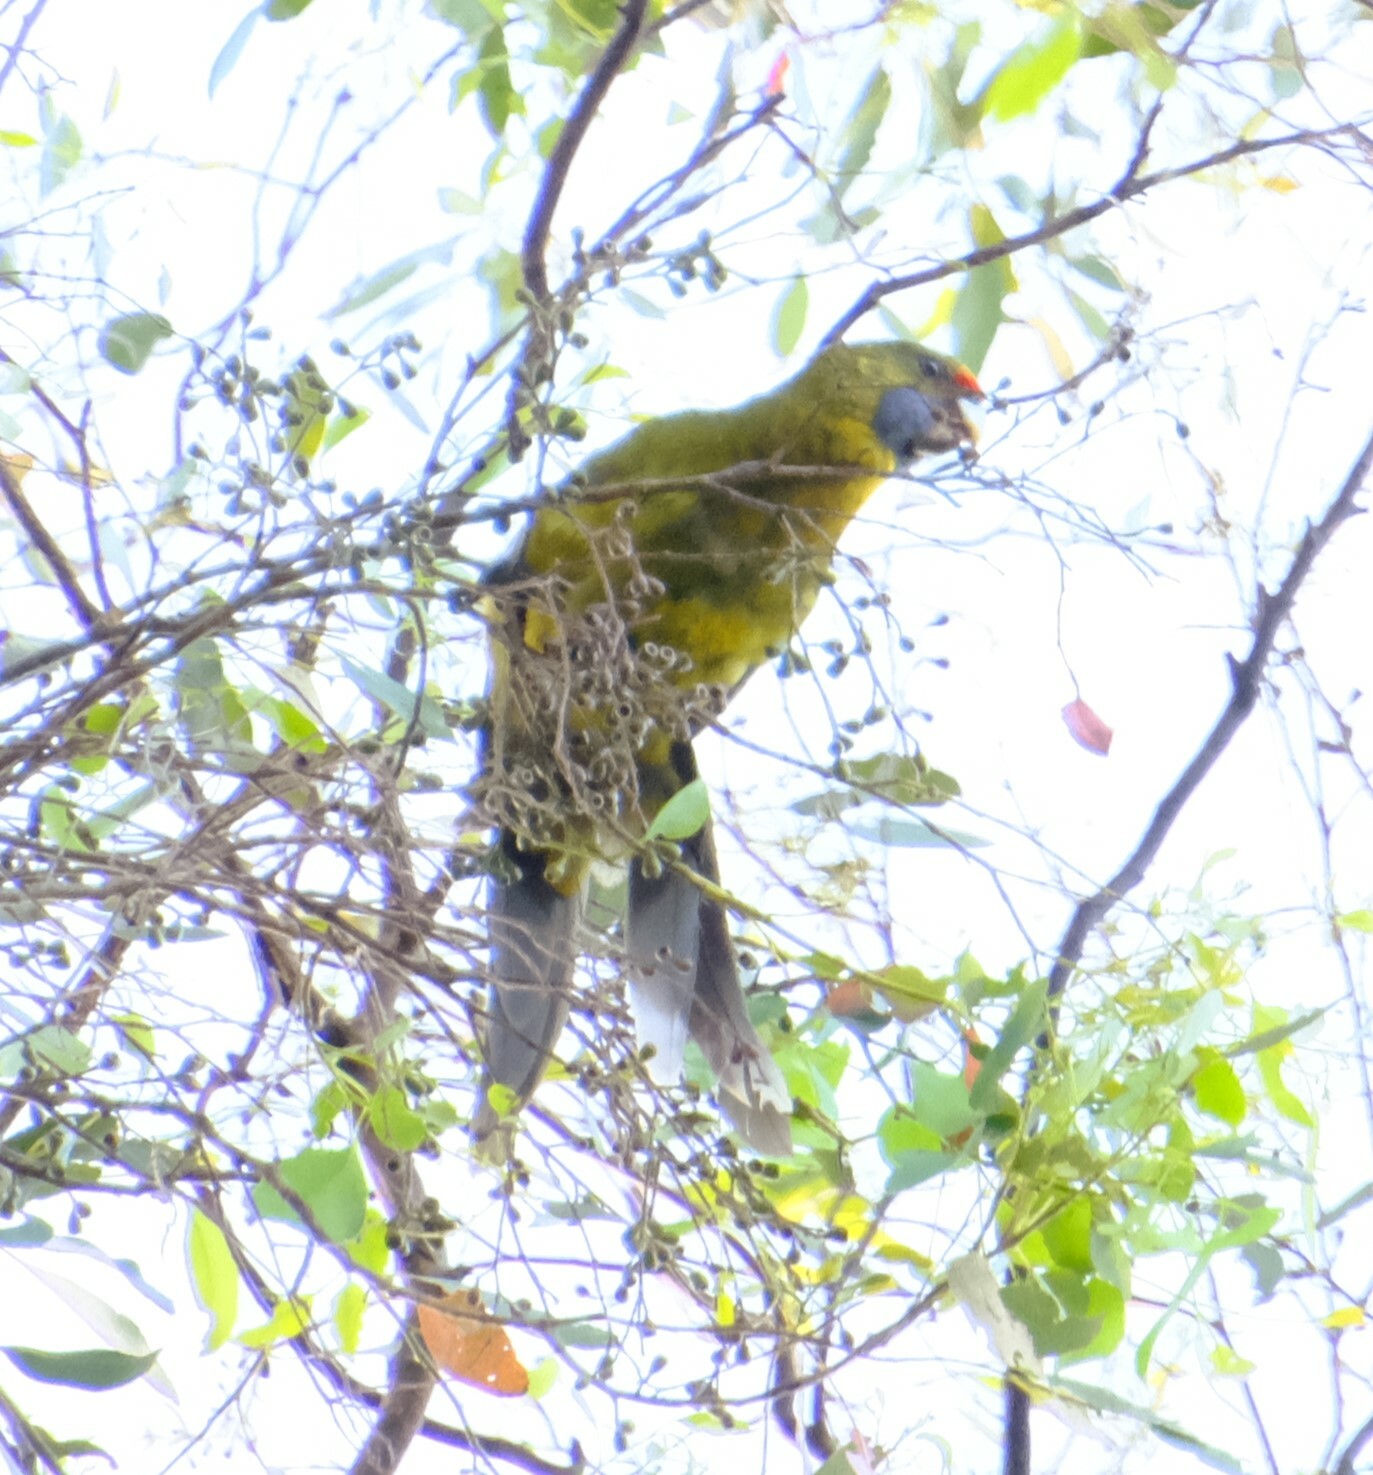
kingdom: Animalia
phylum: Chordata
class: Aves
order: Psittaciformes
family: Psittacidae
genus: Platycercus
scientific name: Platycercus caledonicus
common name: Green rosella
